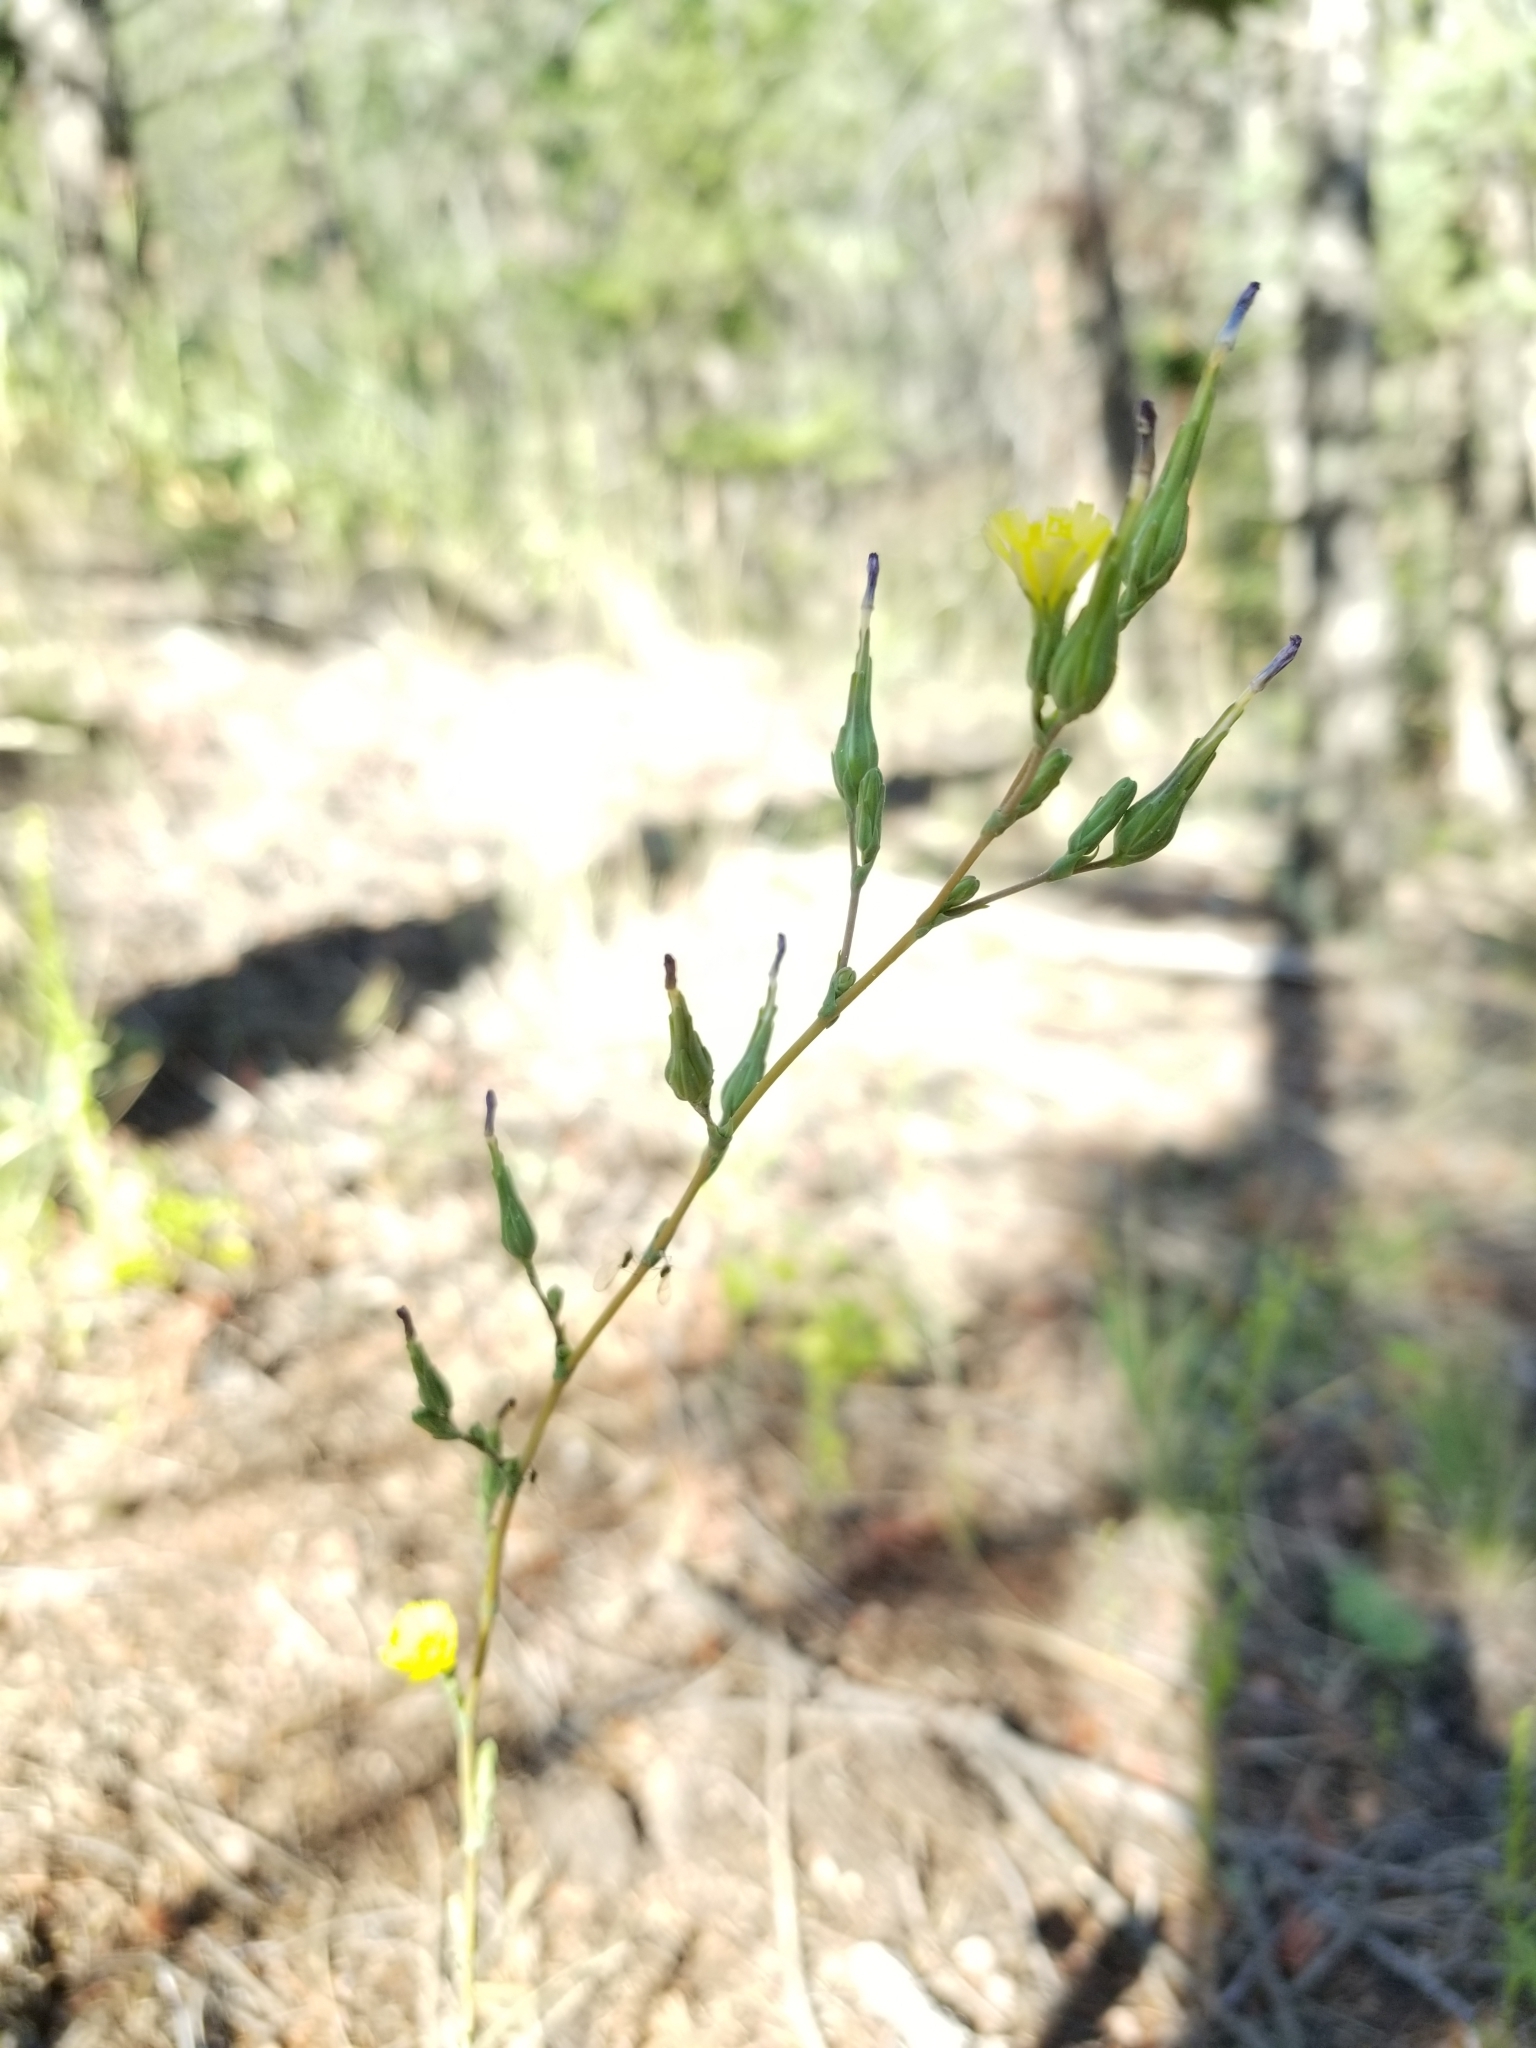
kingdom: Plantae
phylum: Tracheophyta
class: Magnoliopsida
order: Asterales
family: Asteraceae
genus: Lactuca
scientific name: Lactuca serriola
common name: Prickly lettuce
